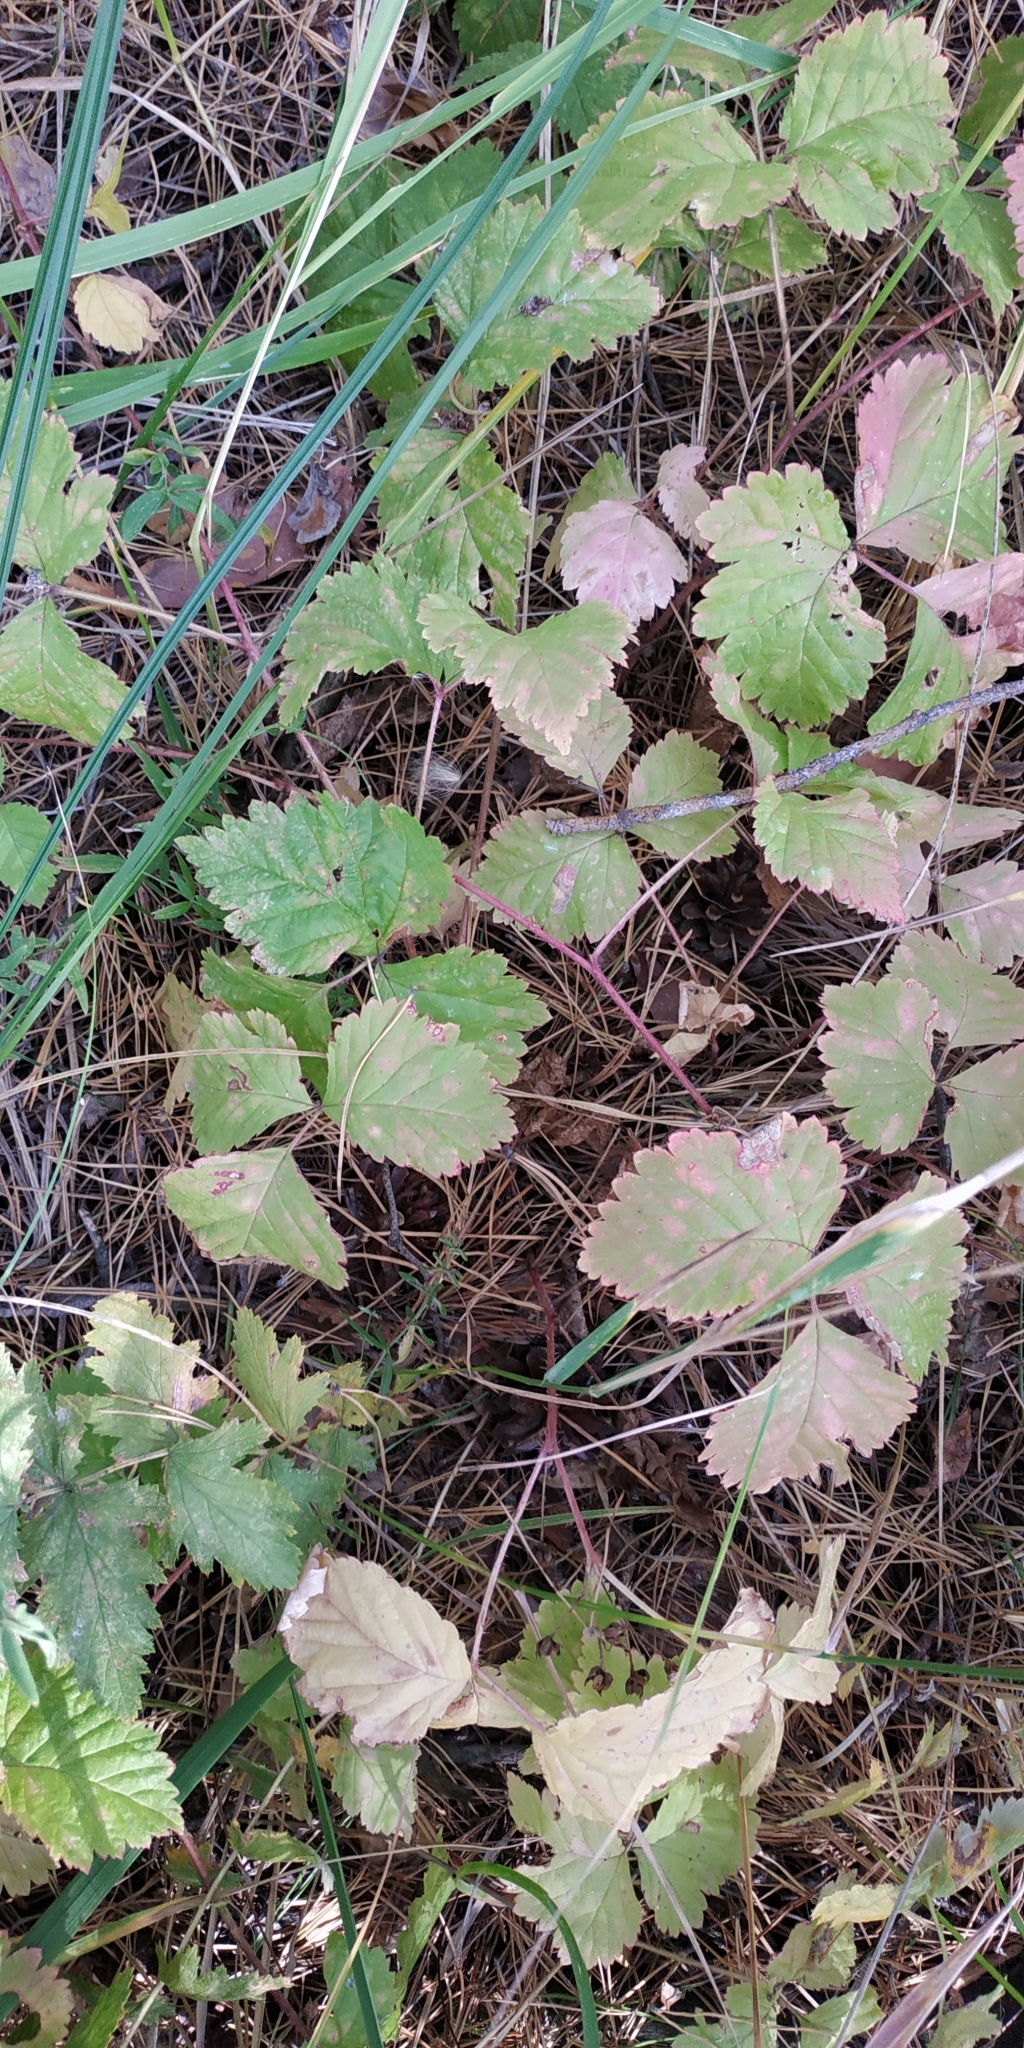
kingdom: Plantae
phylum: Tracheophyta
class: Magnoliopsida
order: Rosales
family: Rosaceae
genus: Rubus
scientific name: Rubus saxatilis
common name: Stone bramble
